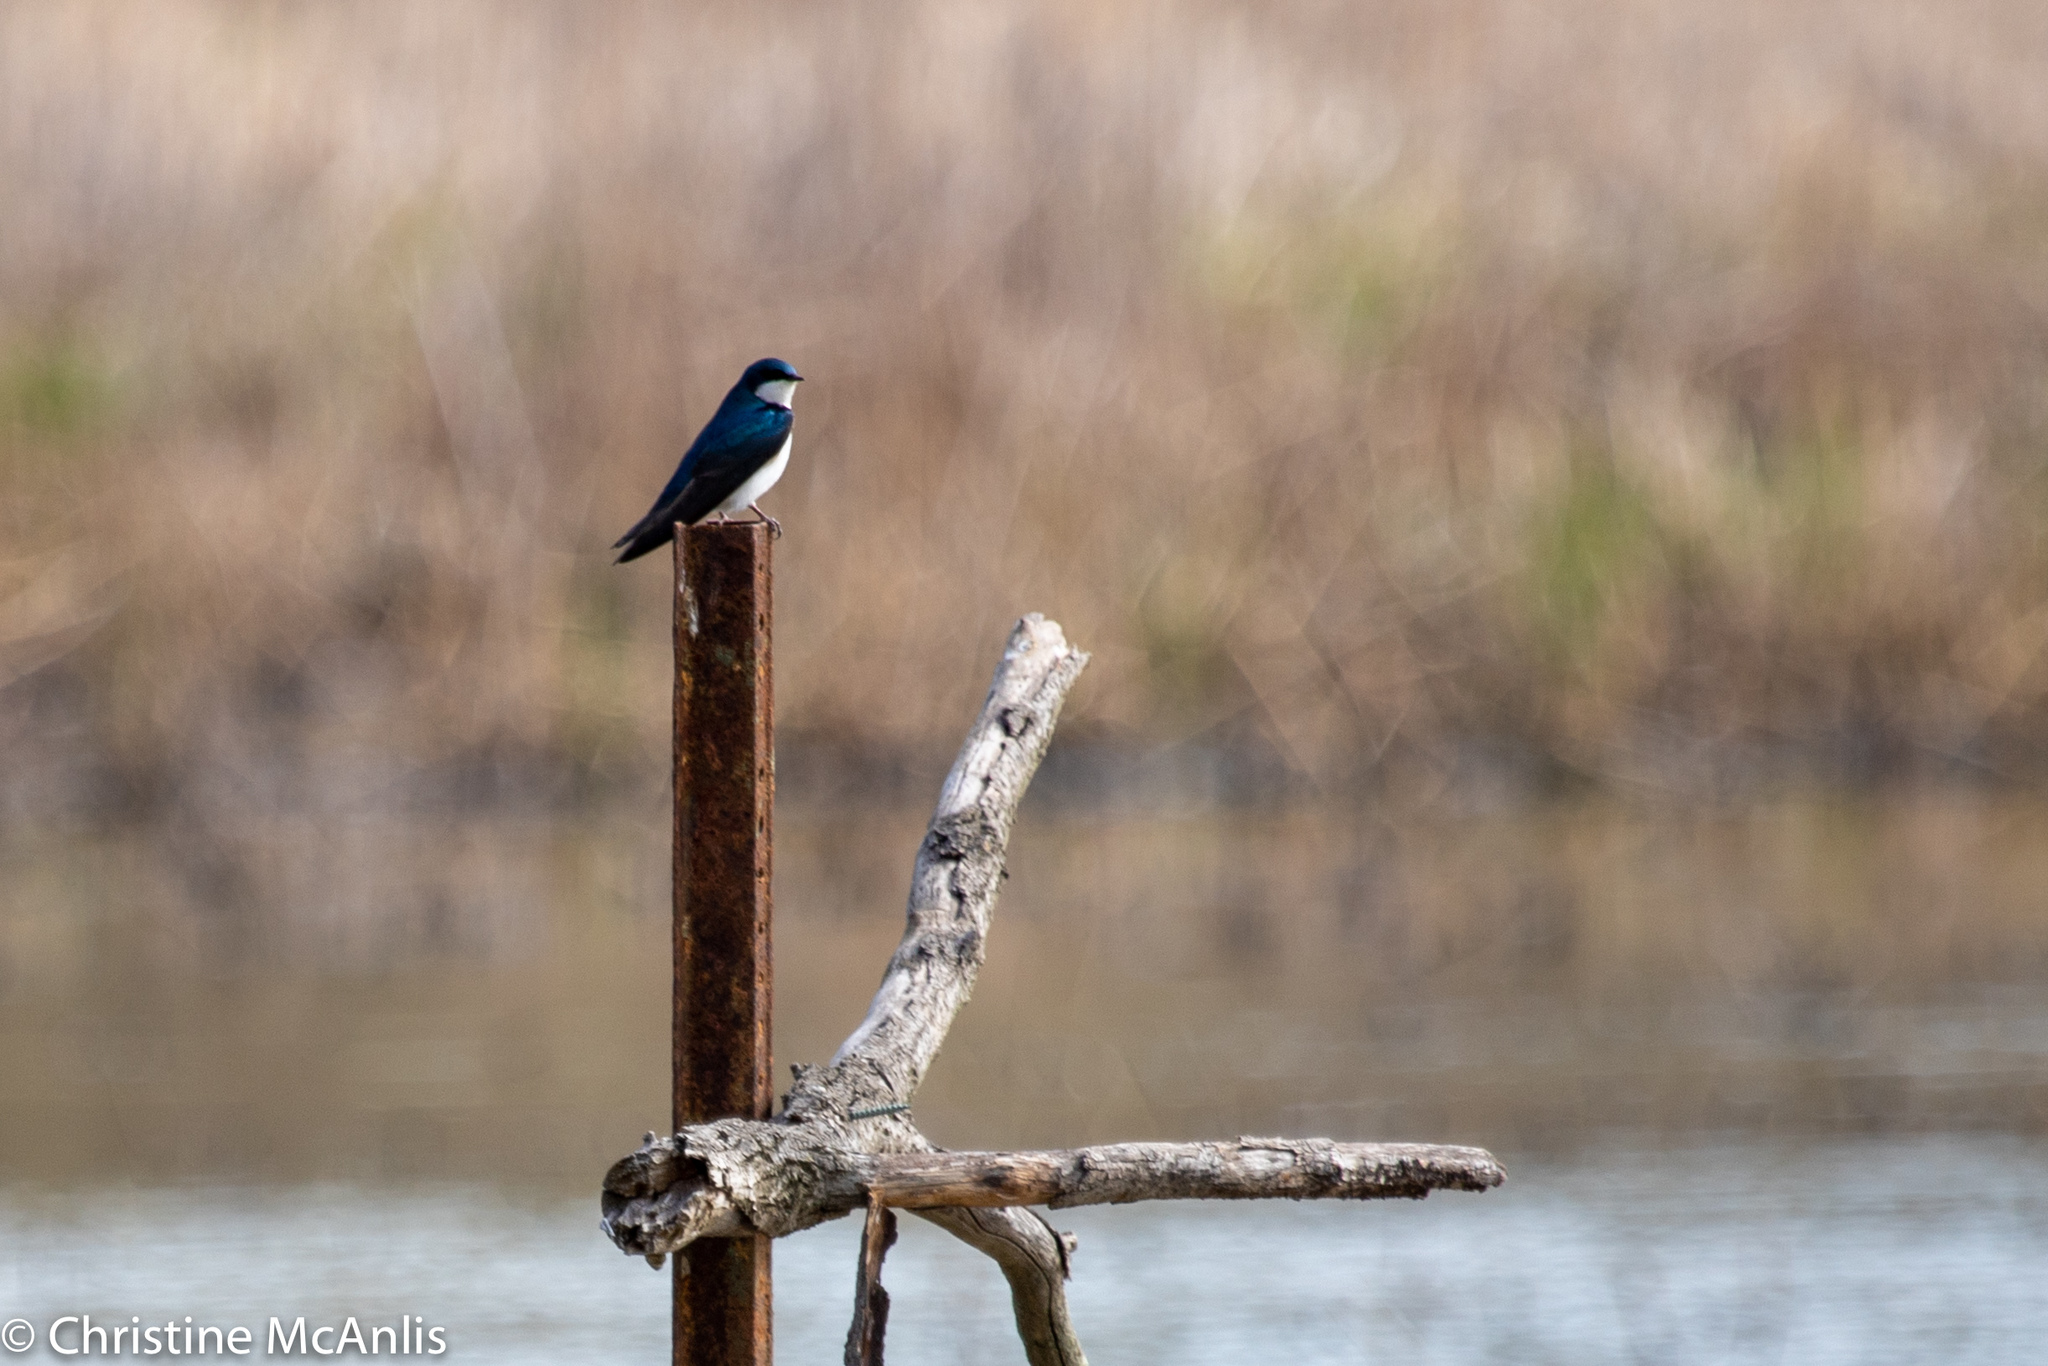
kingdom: Animalia
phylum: Chordata
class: Aves
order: Passeriformes
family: Hirundinidae
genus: Tachycineta
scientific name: Tachycineta bicolor
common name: Tree swallow
